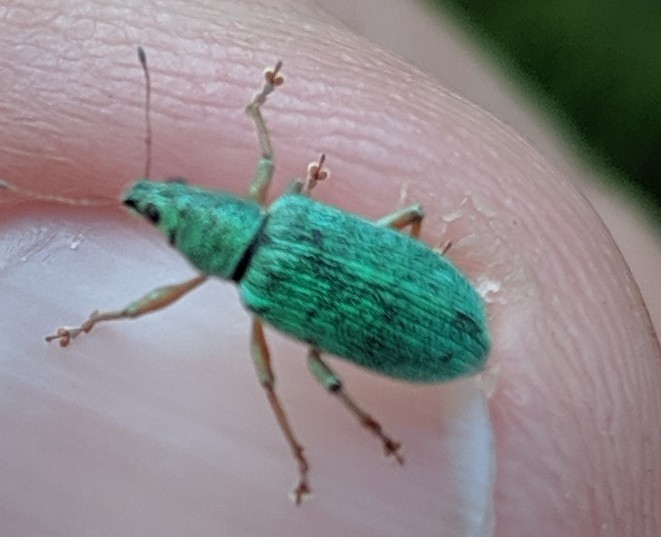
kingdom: Animalia
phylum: Arthropoda
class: Insecta
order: Coleoptera
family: Curculionidae
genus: Polydrusus
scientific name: Polydrusus formosus
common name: Weevil
